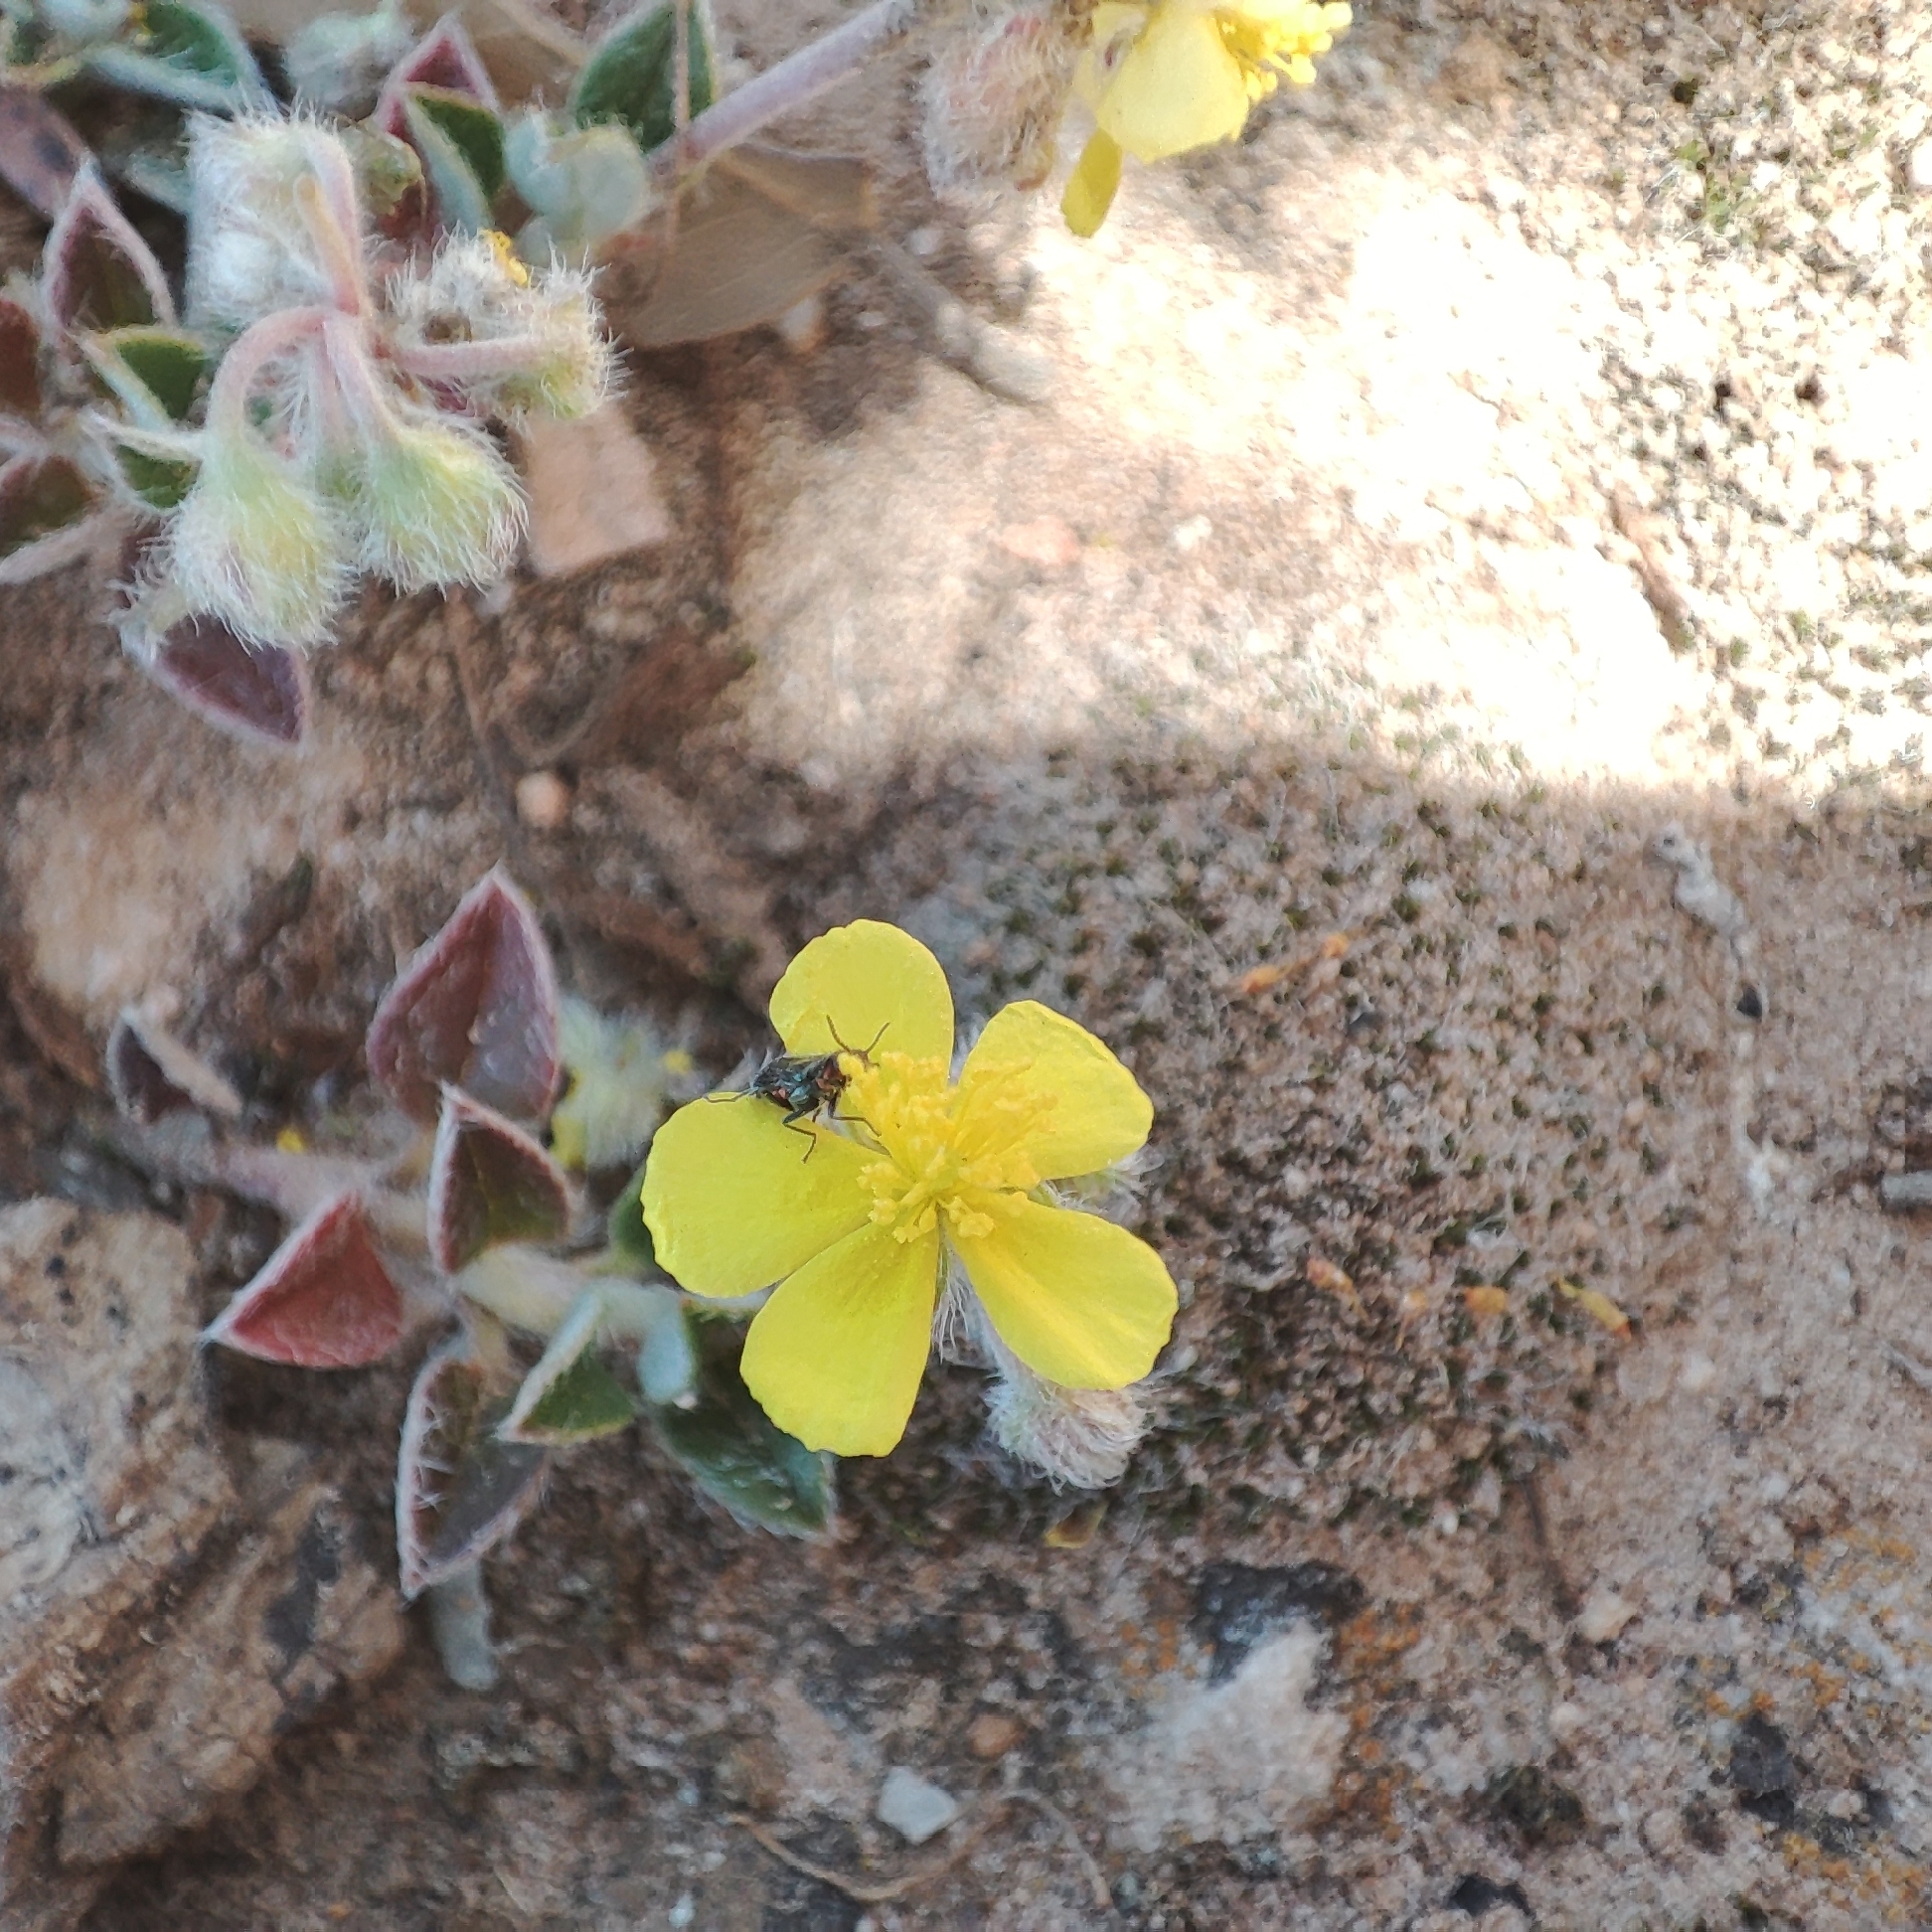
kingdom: Plantae
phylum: Tracheophyta
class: Magnoliopsida
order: Malvales
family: Cistaceae
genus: Helianthemum
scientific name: Helianthemum cinereum
